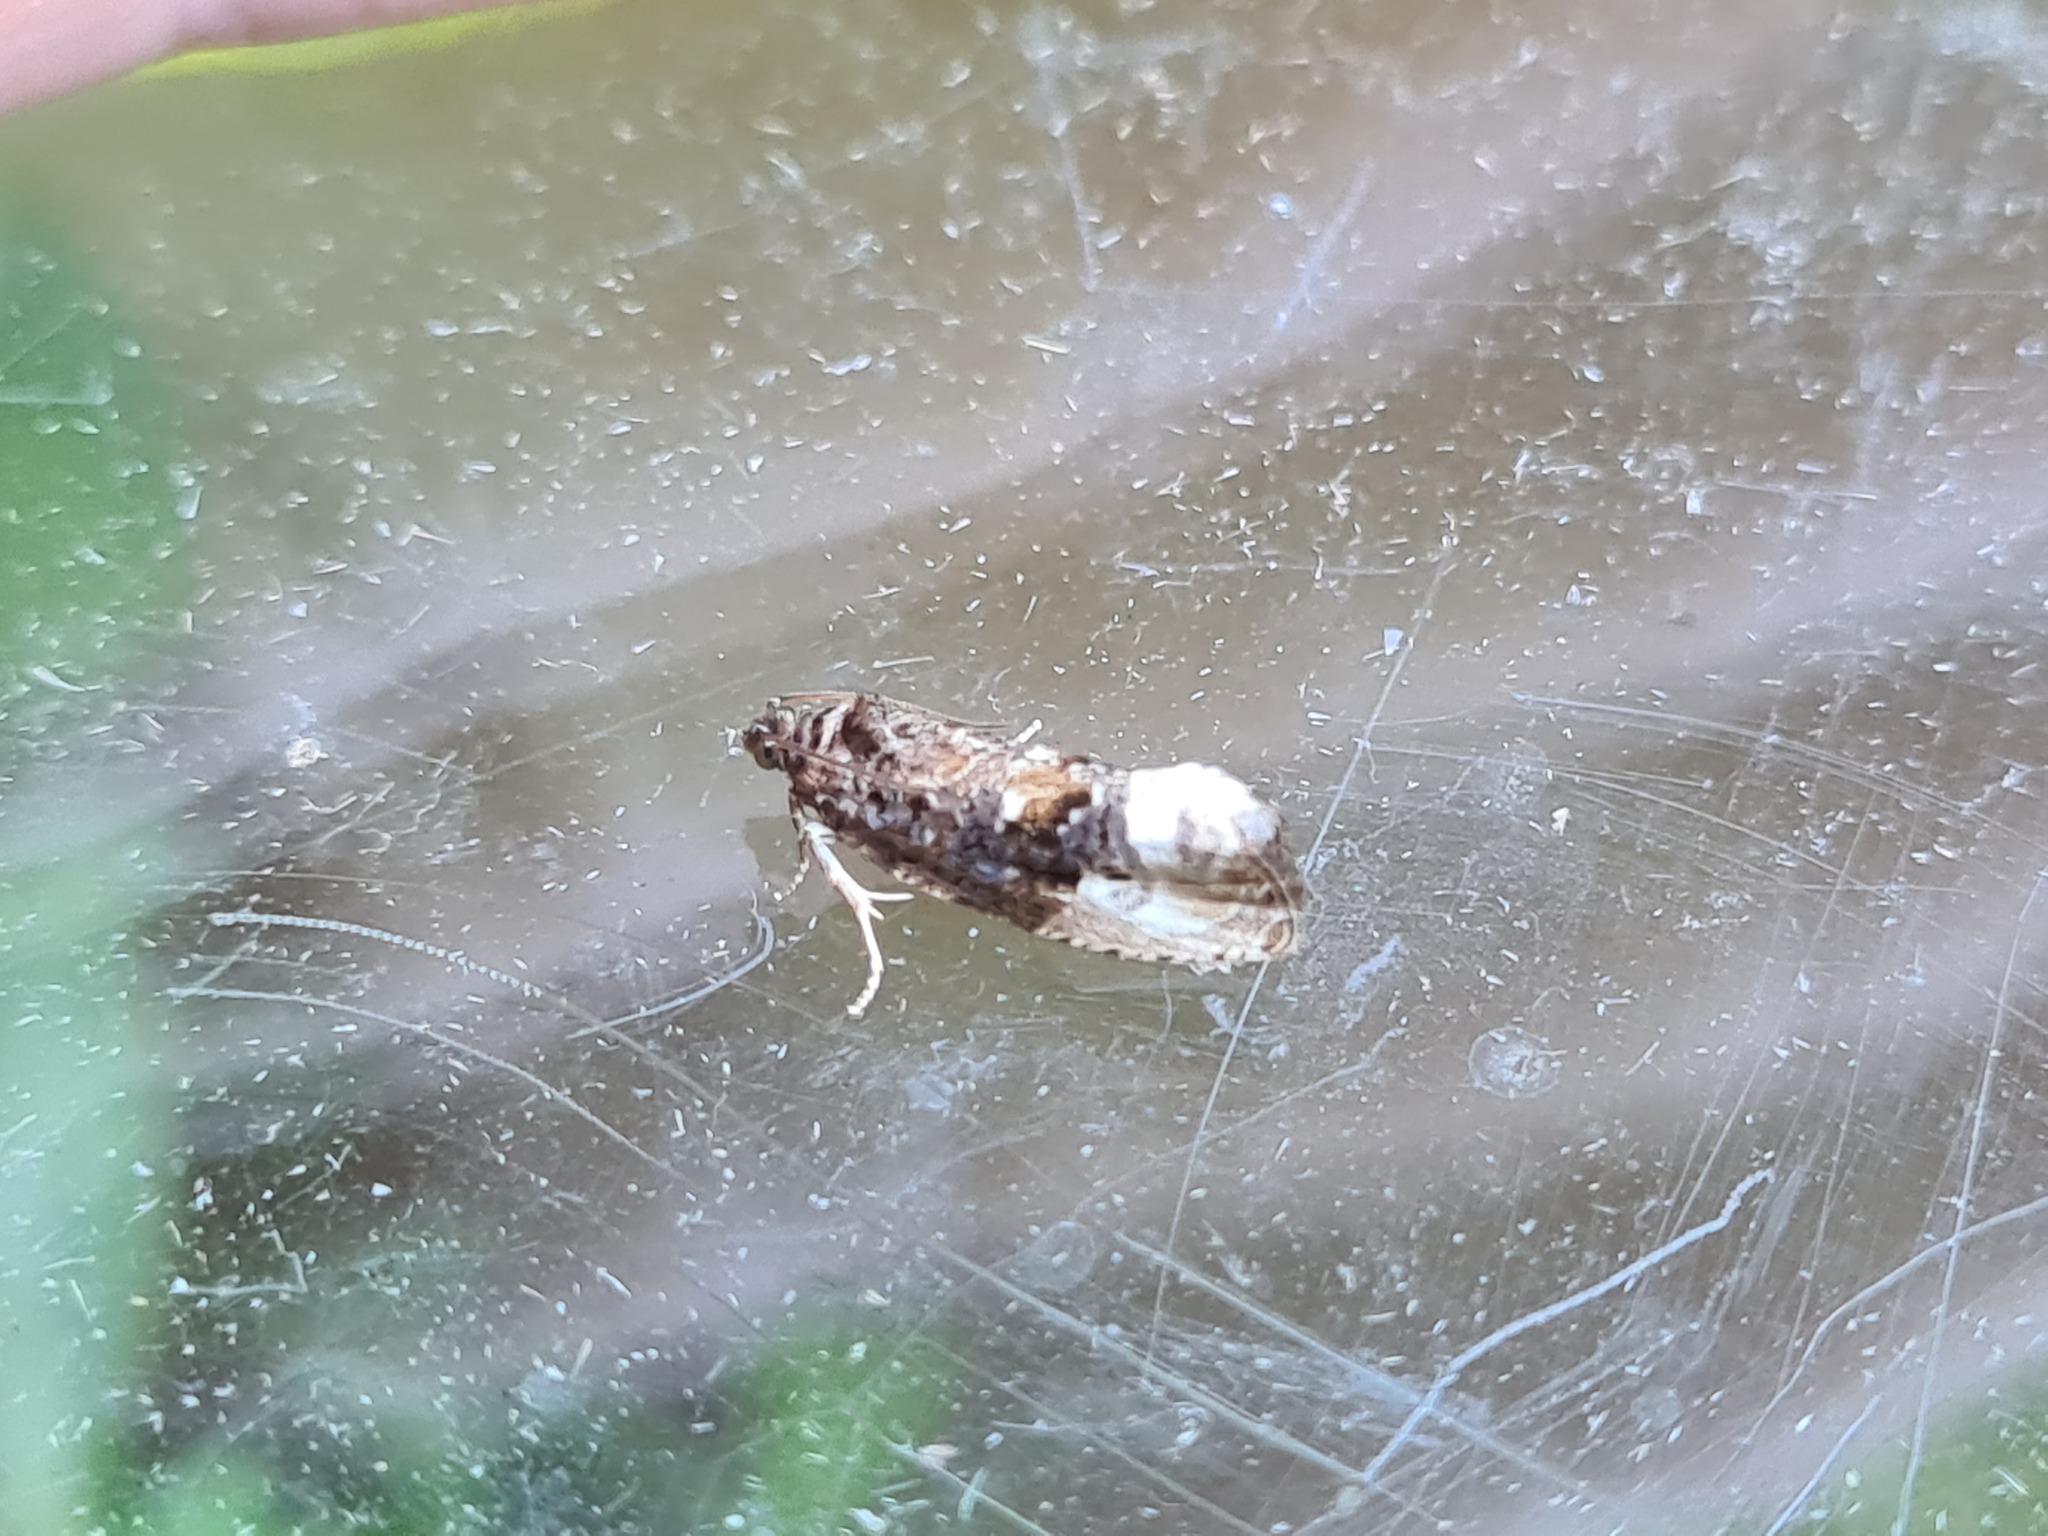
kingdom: Animalia
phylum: Arthropoda
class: Insecta
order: Lepidoptera
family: Tortricidae
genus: Hedya
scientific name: Hedya nubiferana
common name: Marbled orchard tortrix
